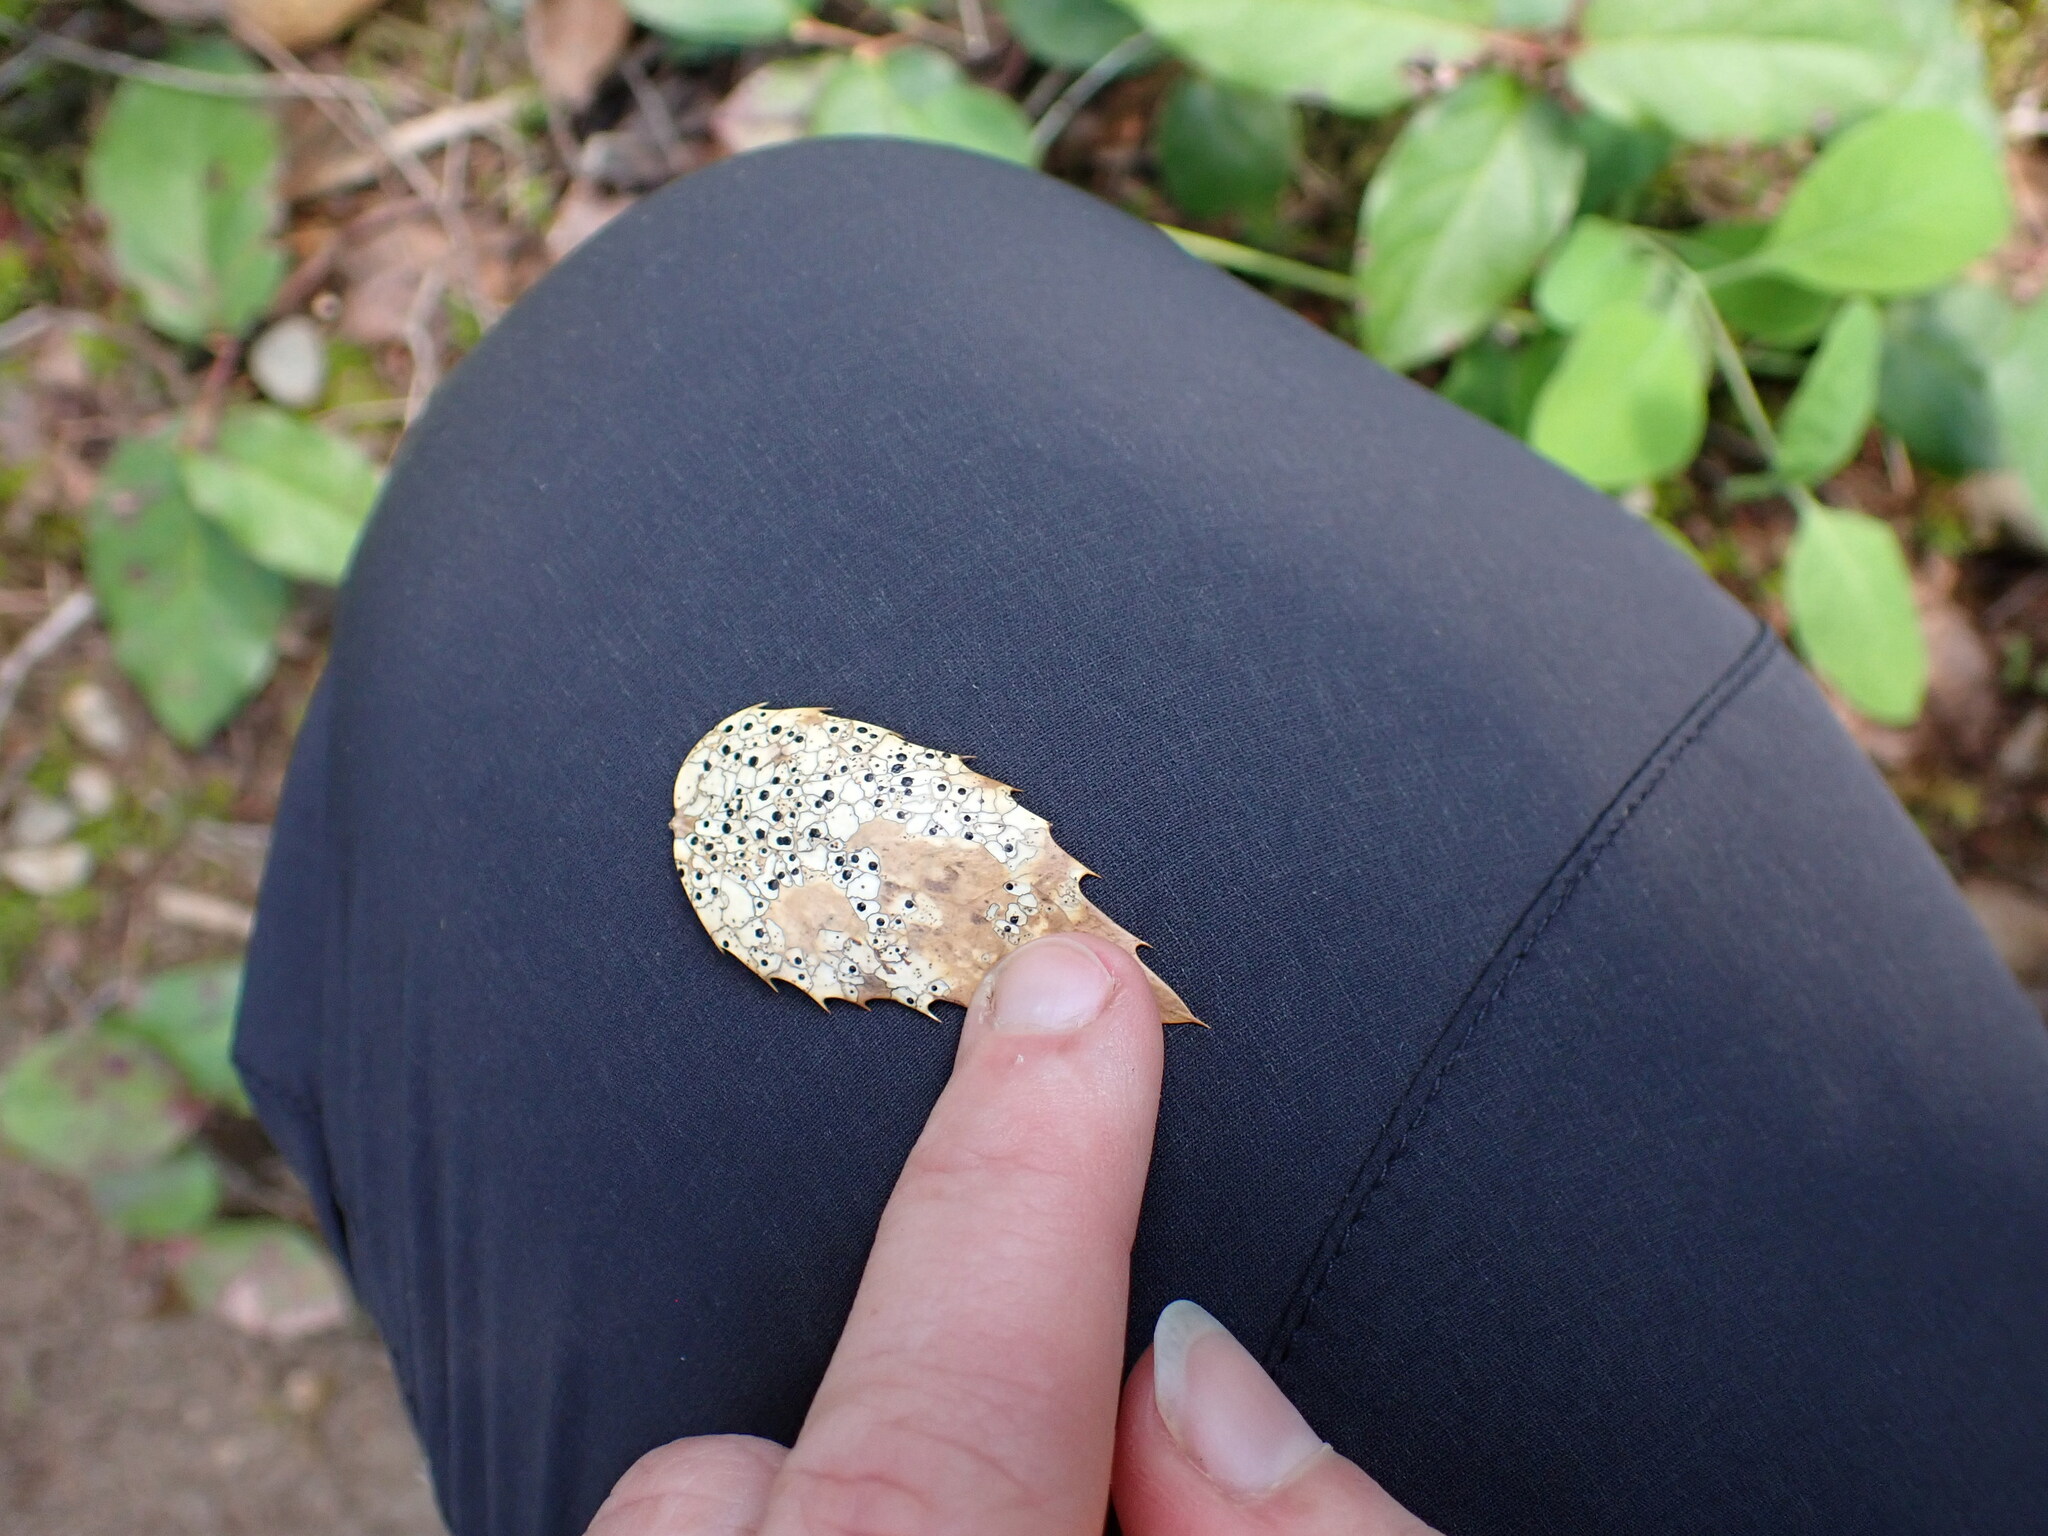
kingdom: Fungi
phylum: Ascomycota
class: Leotiomycetes
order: Rhytismatales
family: Rhytismataceae
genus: Coccomyces
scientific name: Coccomyces dentatus
